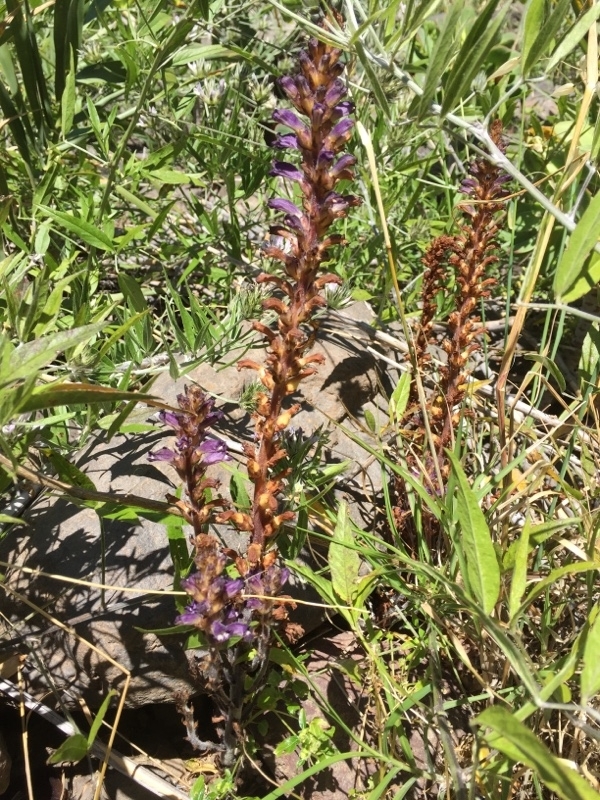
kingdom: Plantae
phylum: Tracheophyta
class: Magnoliopsida
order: Lamiales
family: Orobanchaceae
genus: Phelipanche
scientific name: Phelipanche lavandulacea
